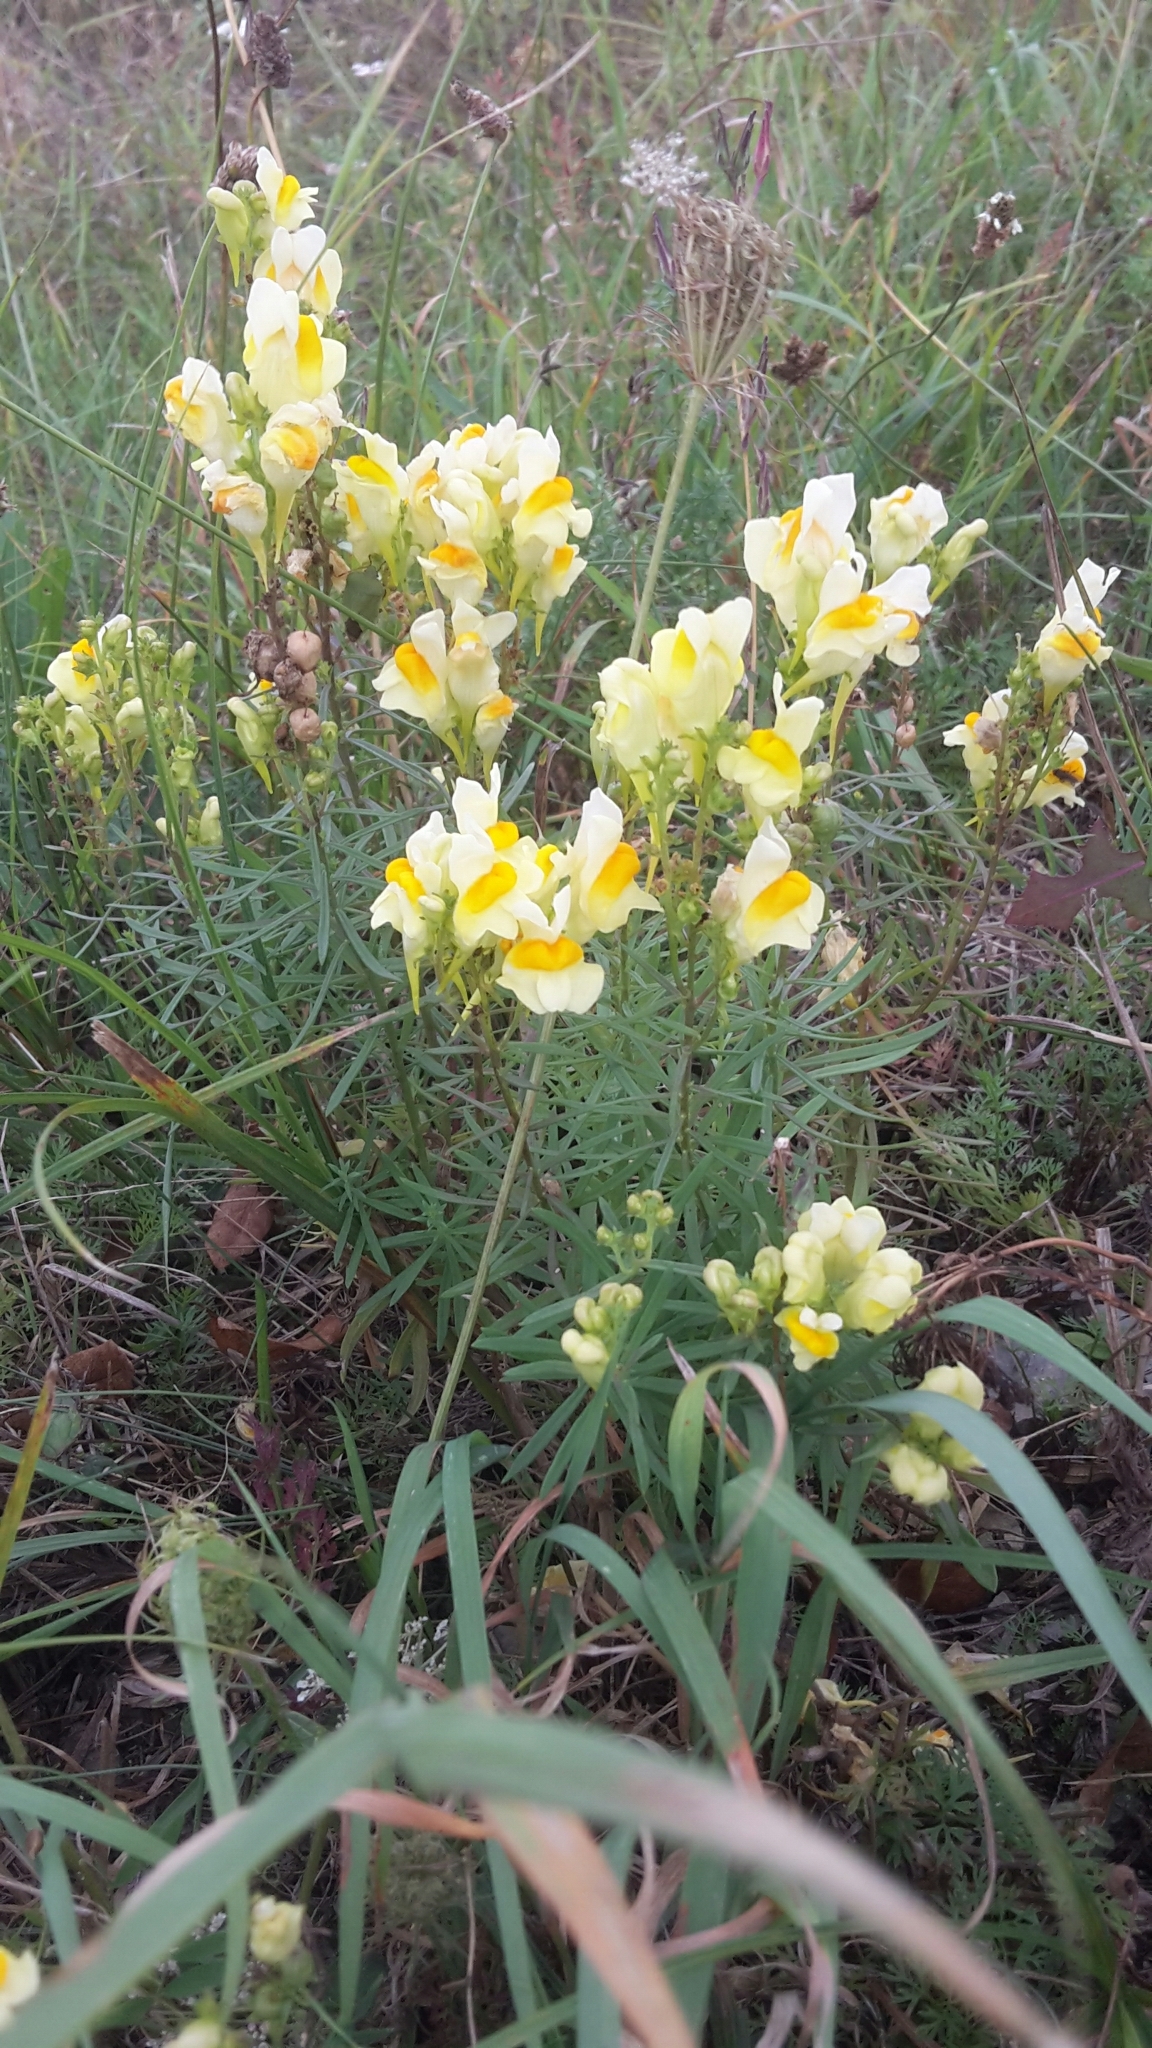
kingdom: Plantae
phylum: Tracheophyta
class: Magnoliopsida
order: Lamiales
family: Plantaginaceae
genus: Linaria
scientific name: Linaria vulgaris
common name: Butter and eggs
